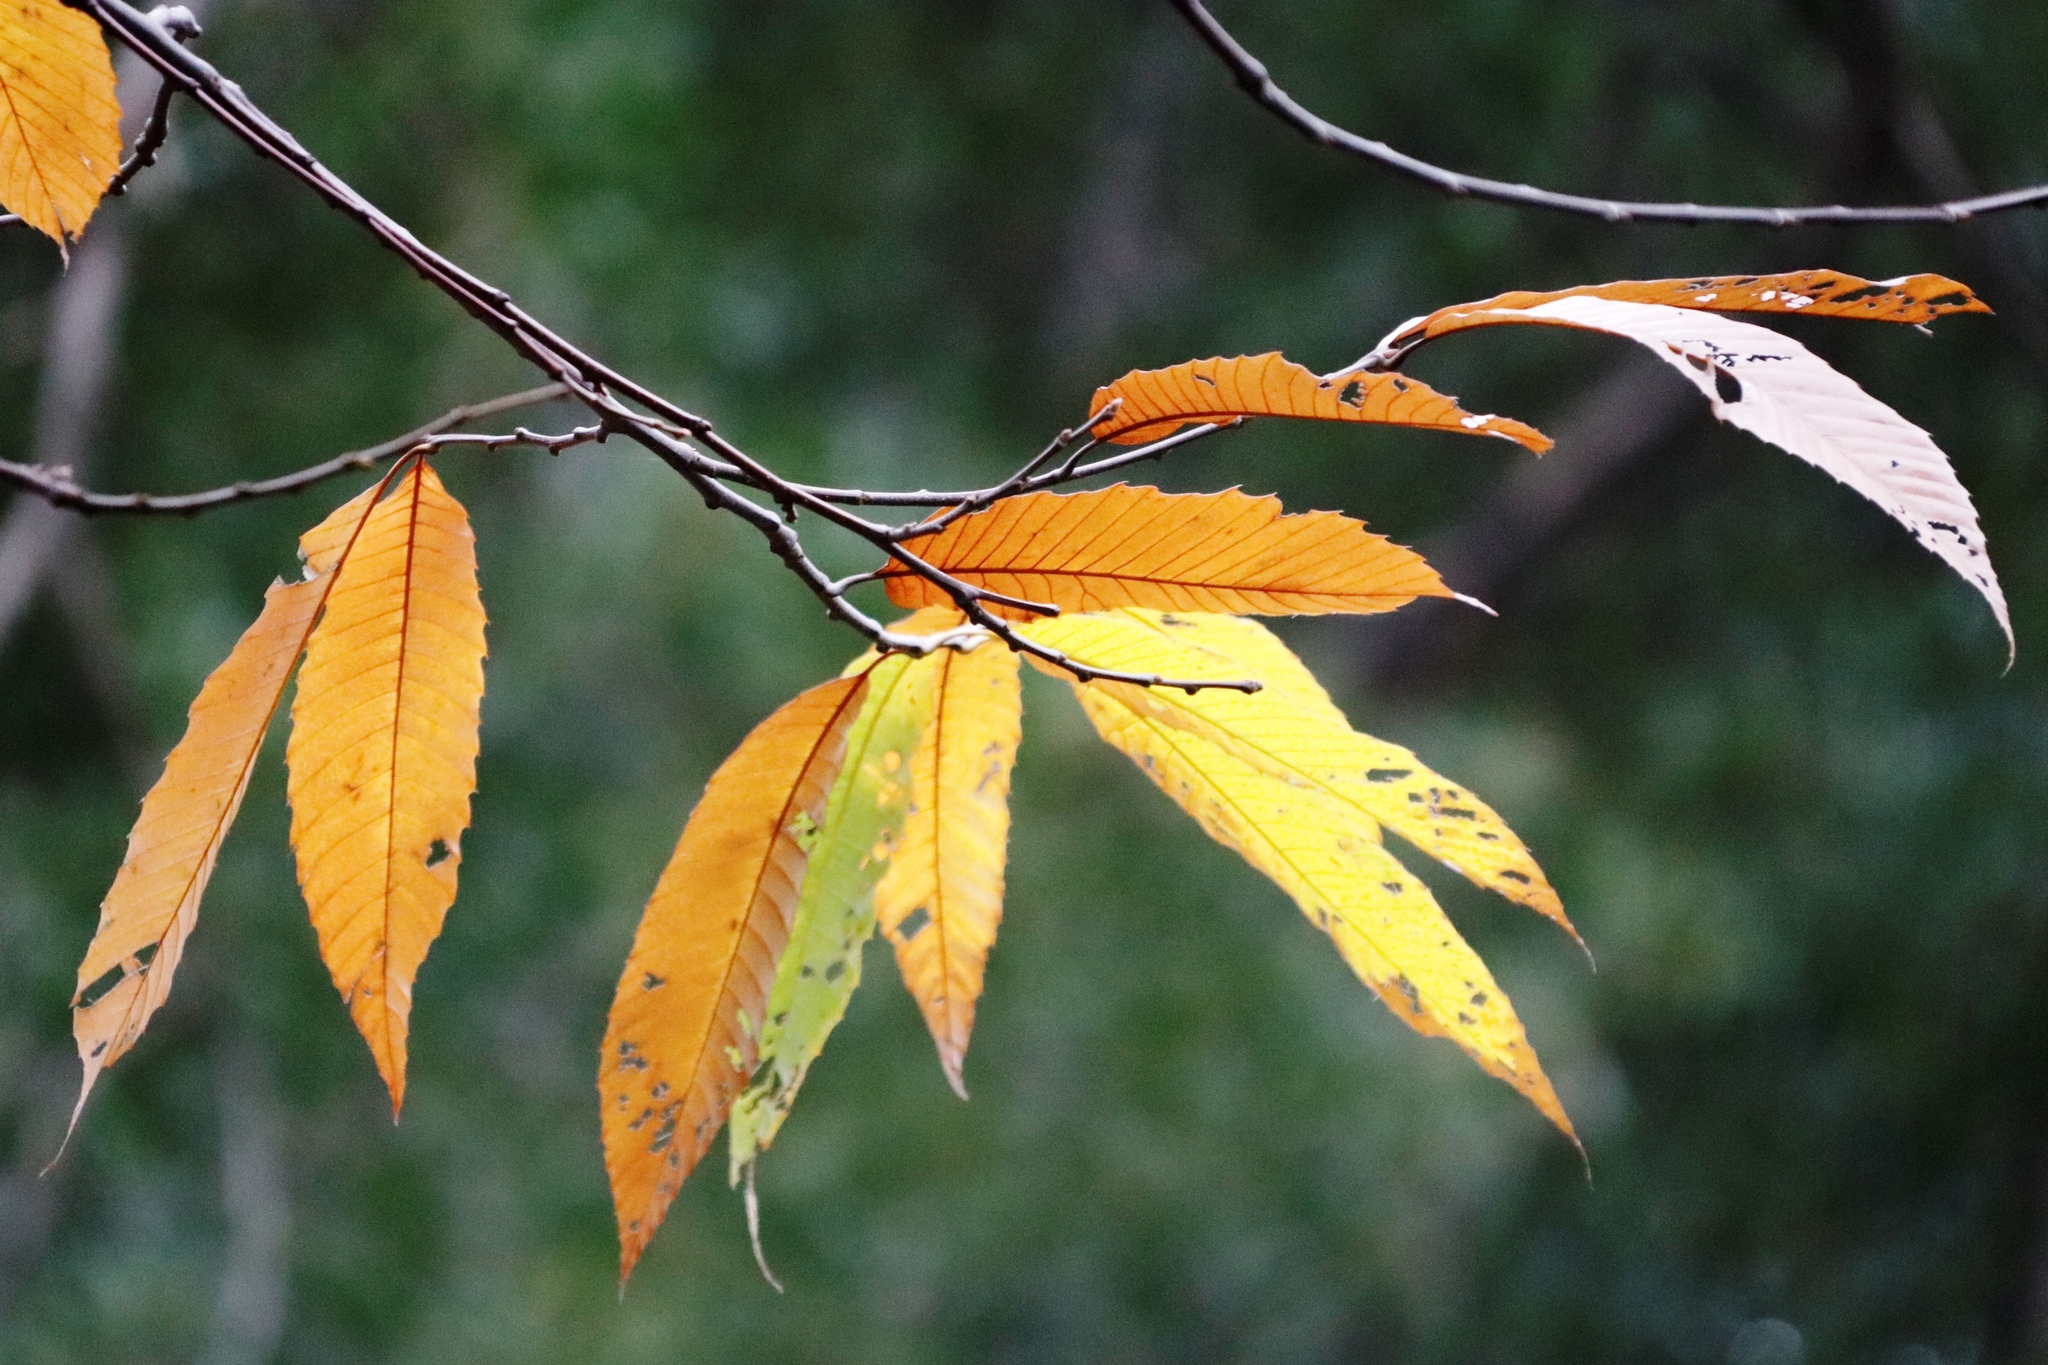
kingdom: Plantae
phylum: Tracheophyta
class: Magnoliopsida
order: Fagales
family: Fagaceae
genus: Castanea
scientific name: Castanea sativa
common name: Sweet chestnut
